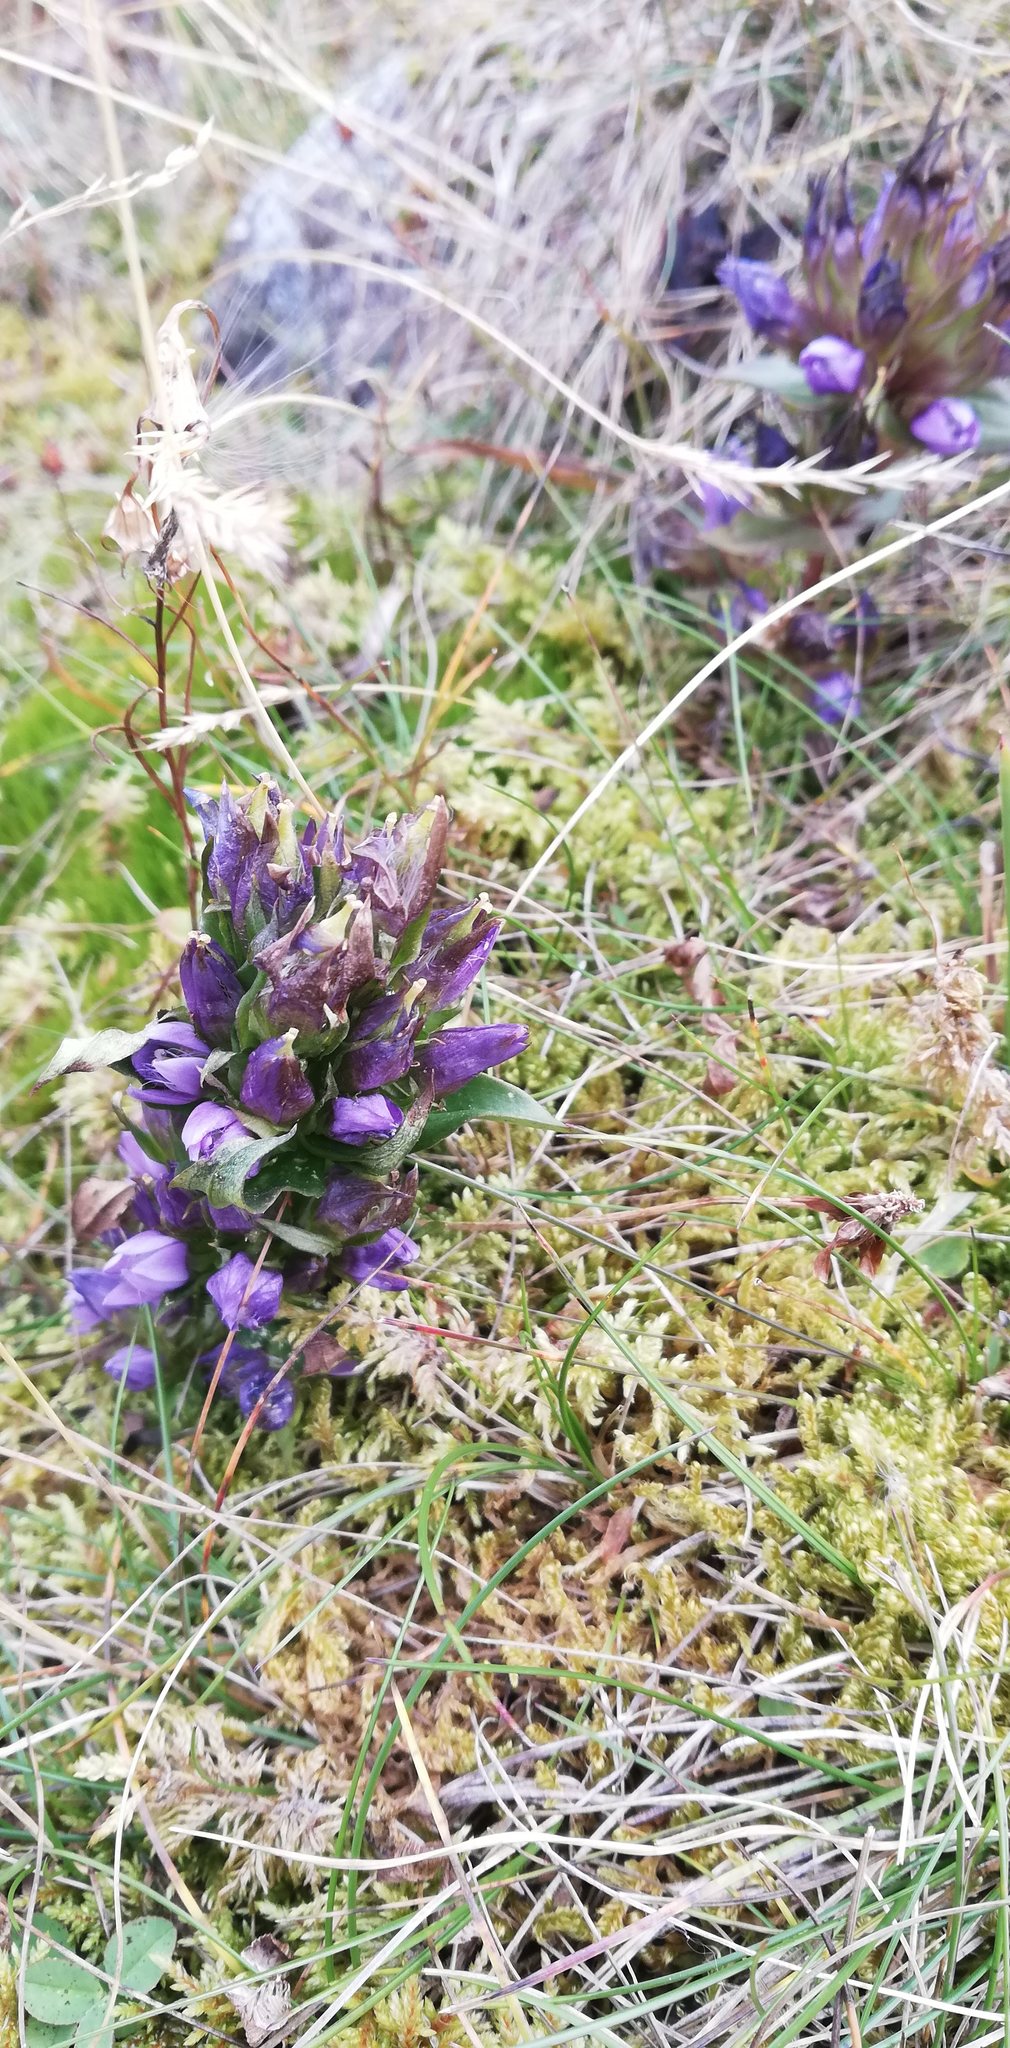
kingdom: Plantae
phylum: Tracheophyta
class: Magnoliopsida
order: Gentianales
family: Gentianaceae
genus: Gentianella
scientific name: Gentianella anisodonta
